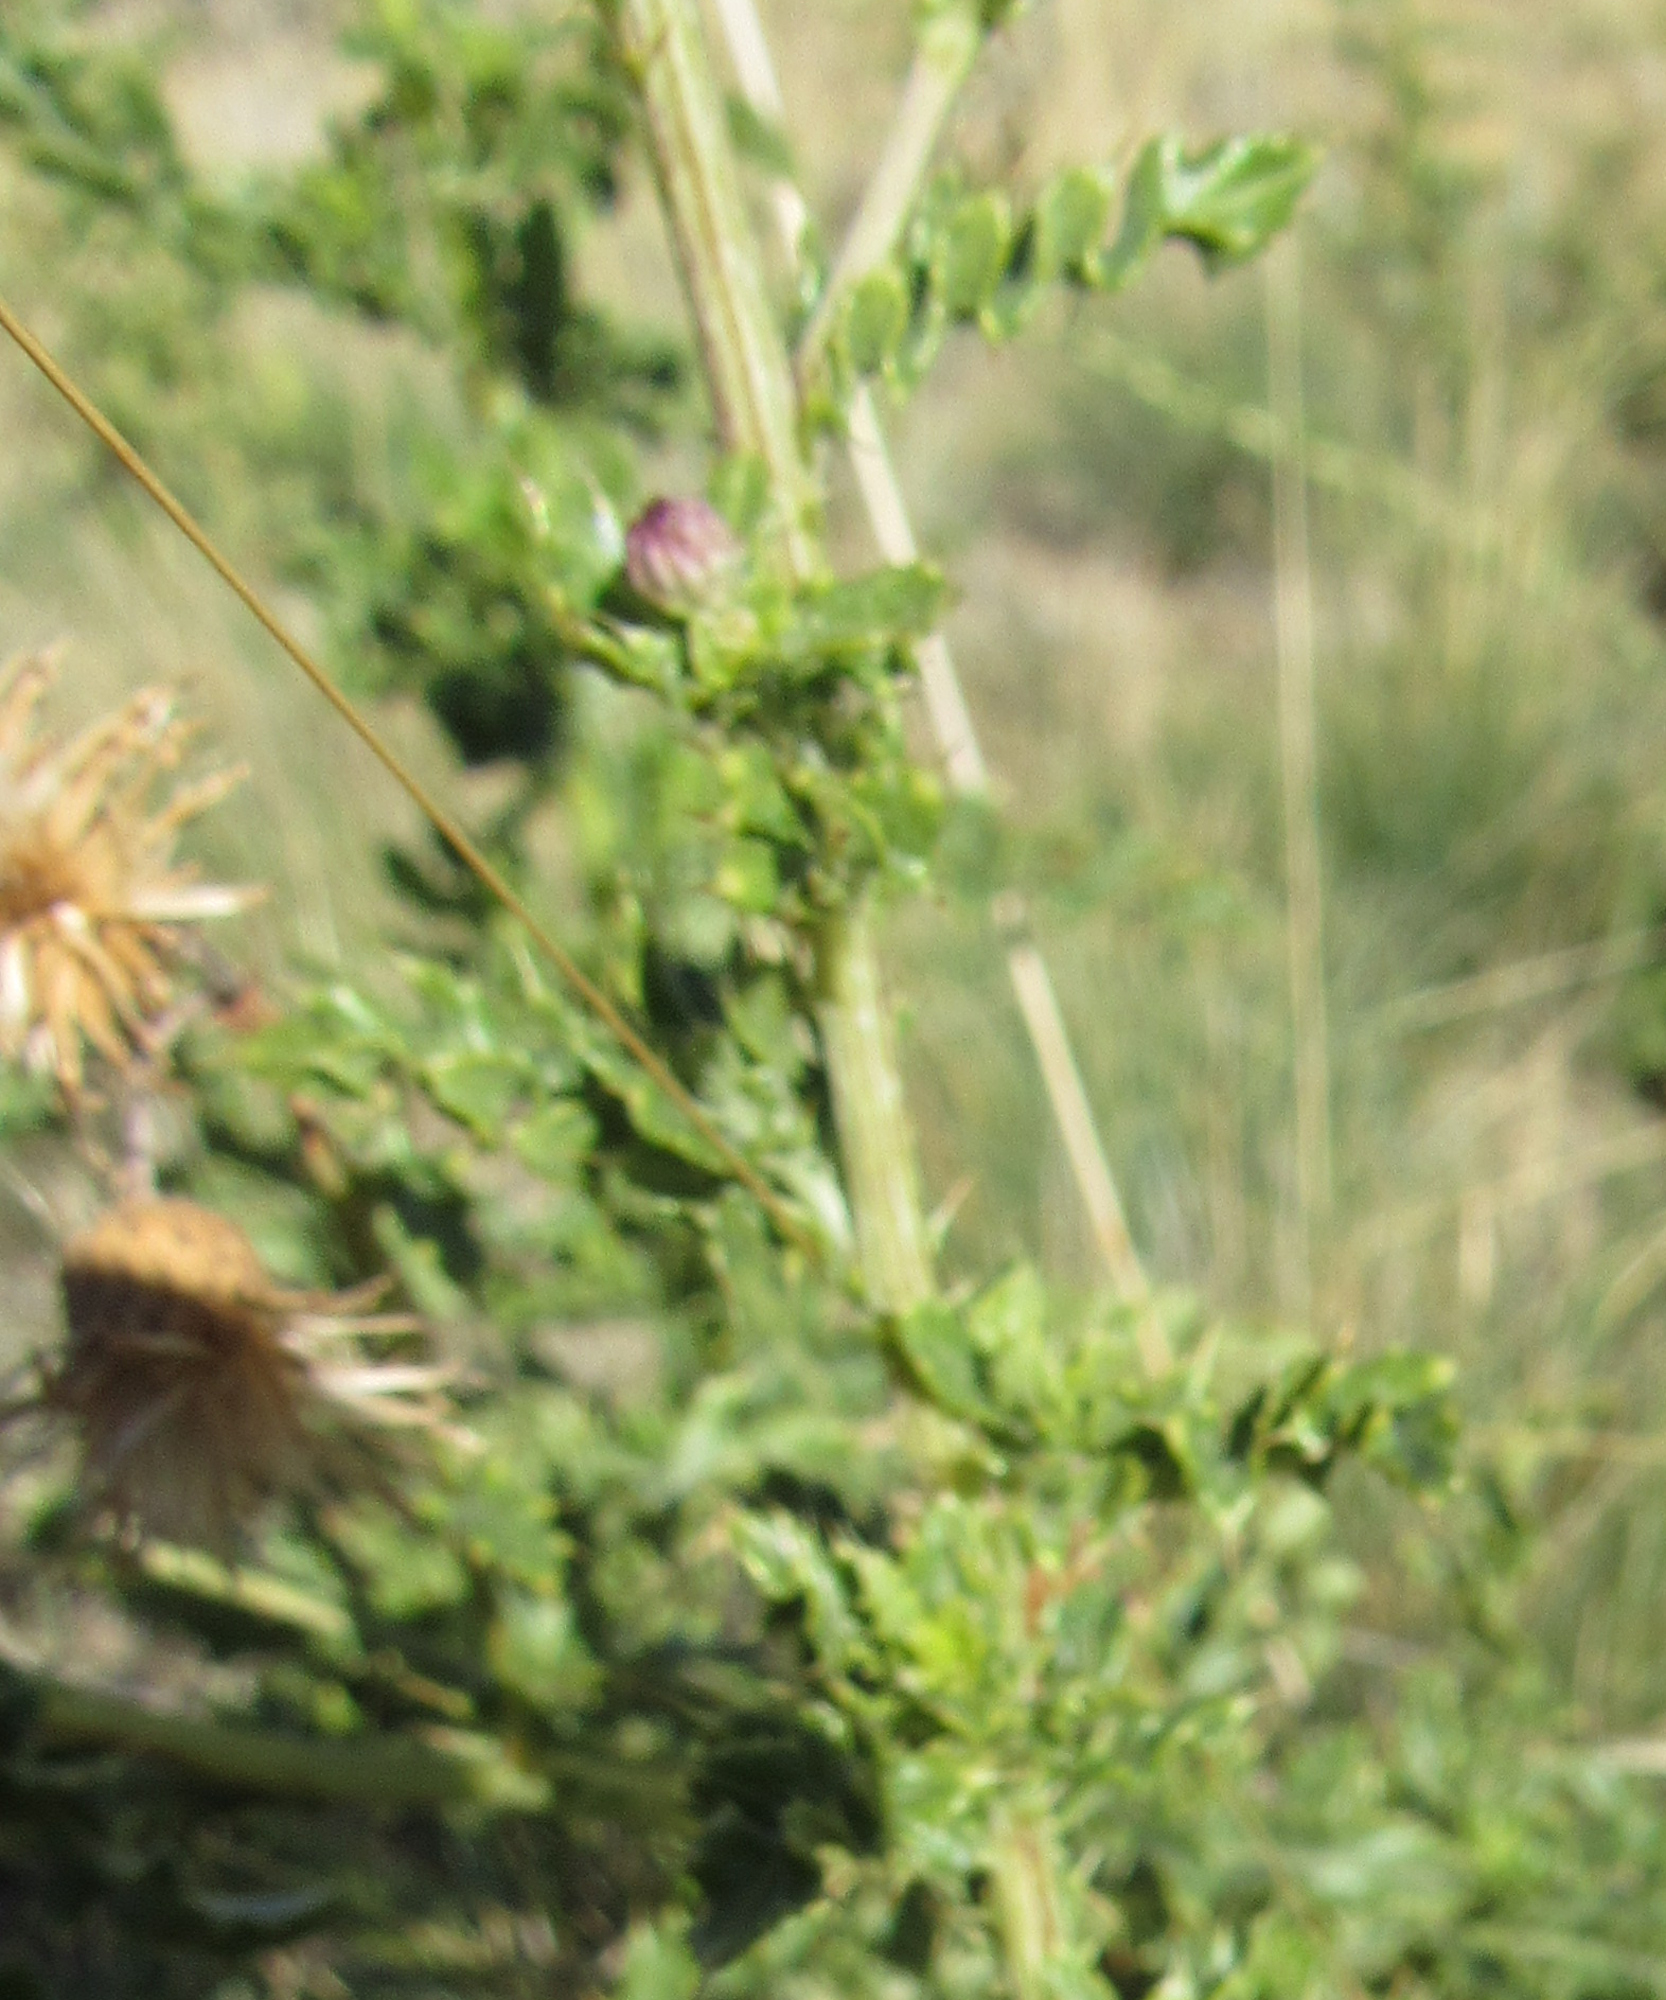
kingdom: Plantae
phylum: Tracheophyta
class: Magnoliopsida
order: Asterales
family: Asteraceae
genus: Cirsium
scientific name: Cirsium arvense
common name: Creeping thistle
